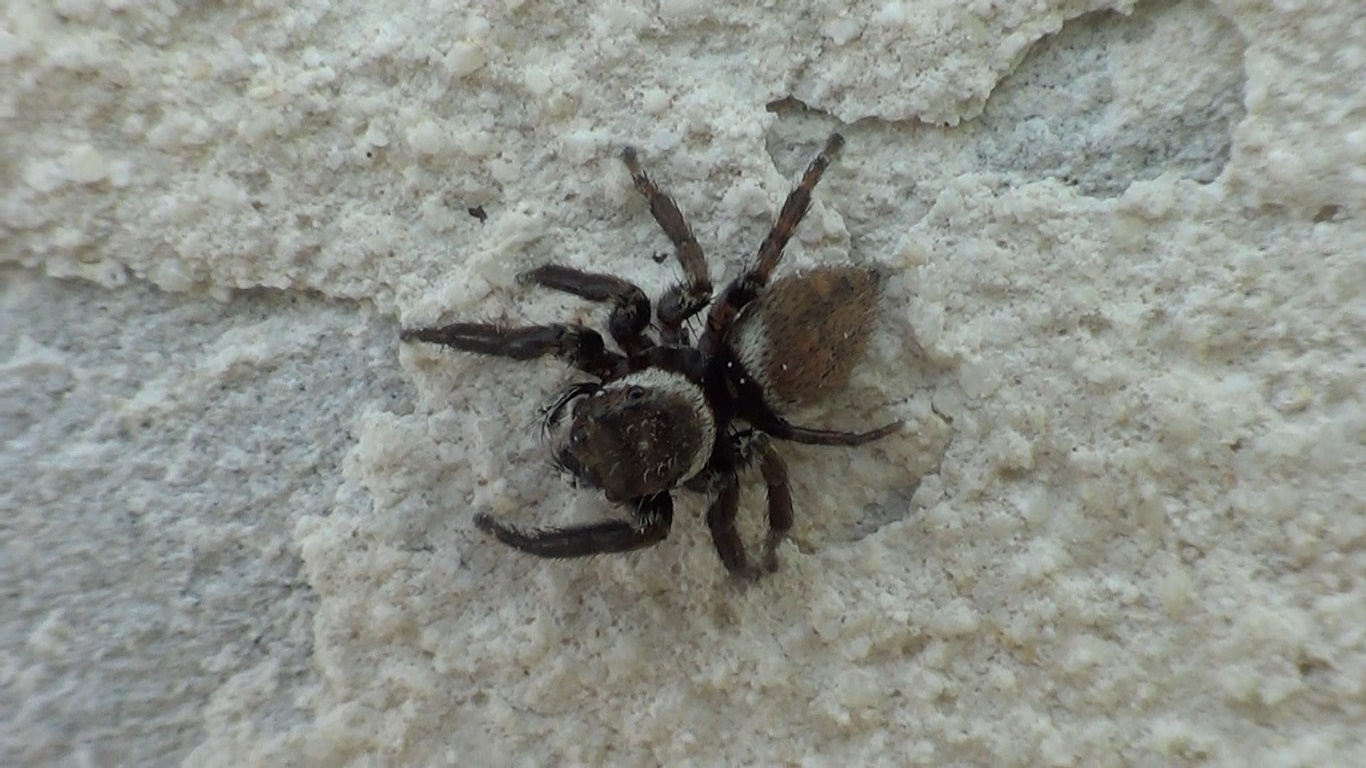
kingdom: Animalia
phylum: Arthropoda
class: Arachnida
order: Araneae
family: Salticidae
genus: Evarcha
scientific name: Evarcha jucunda
